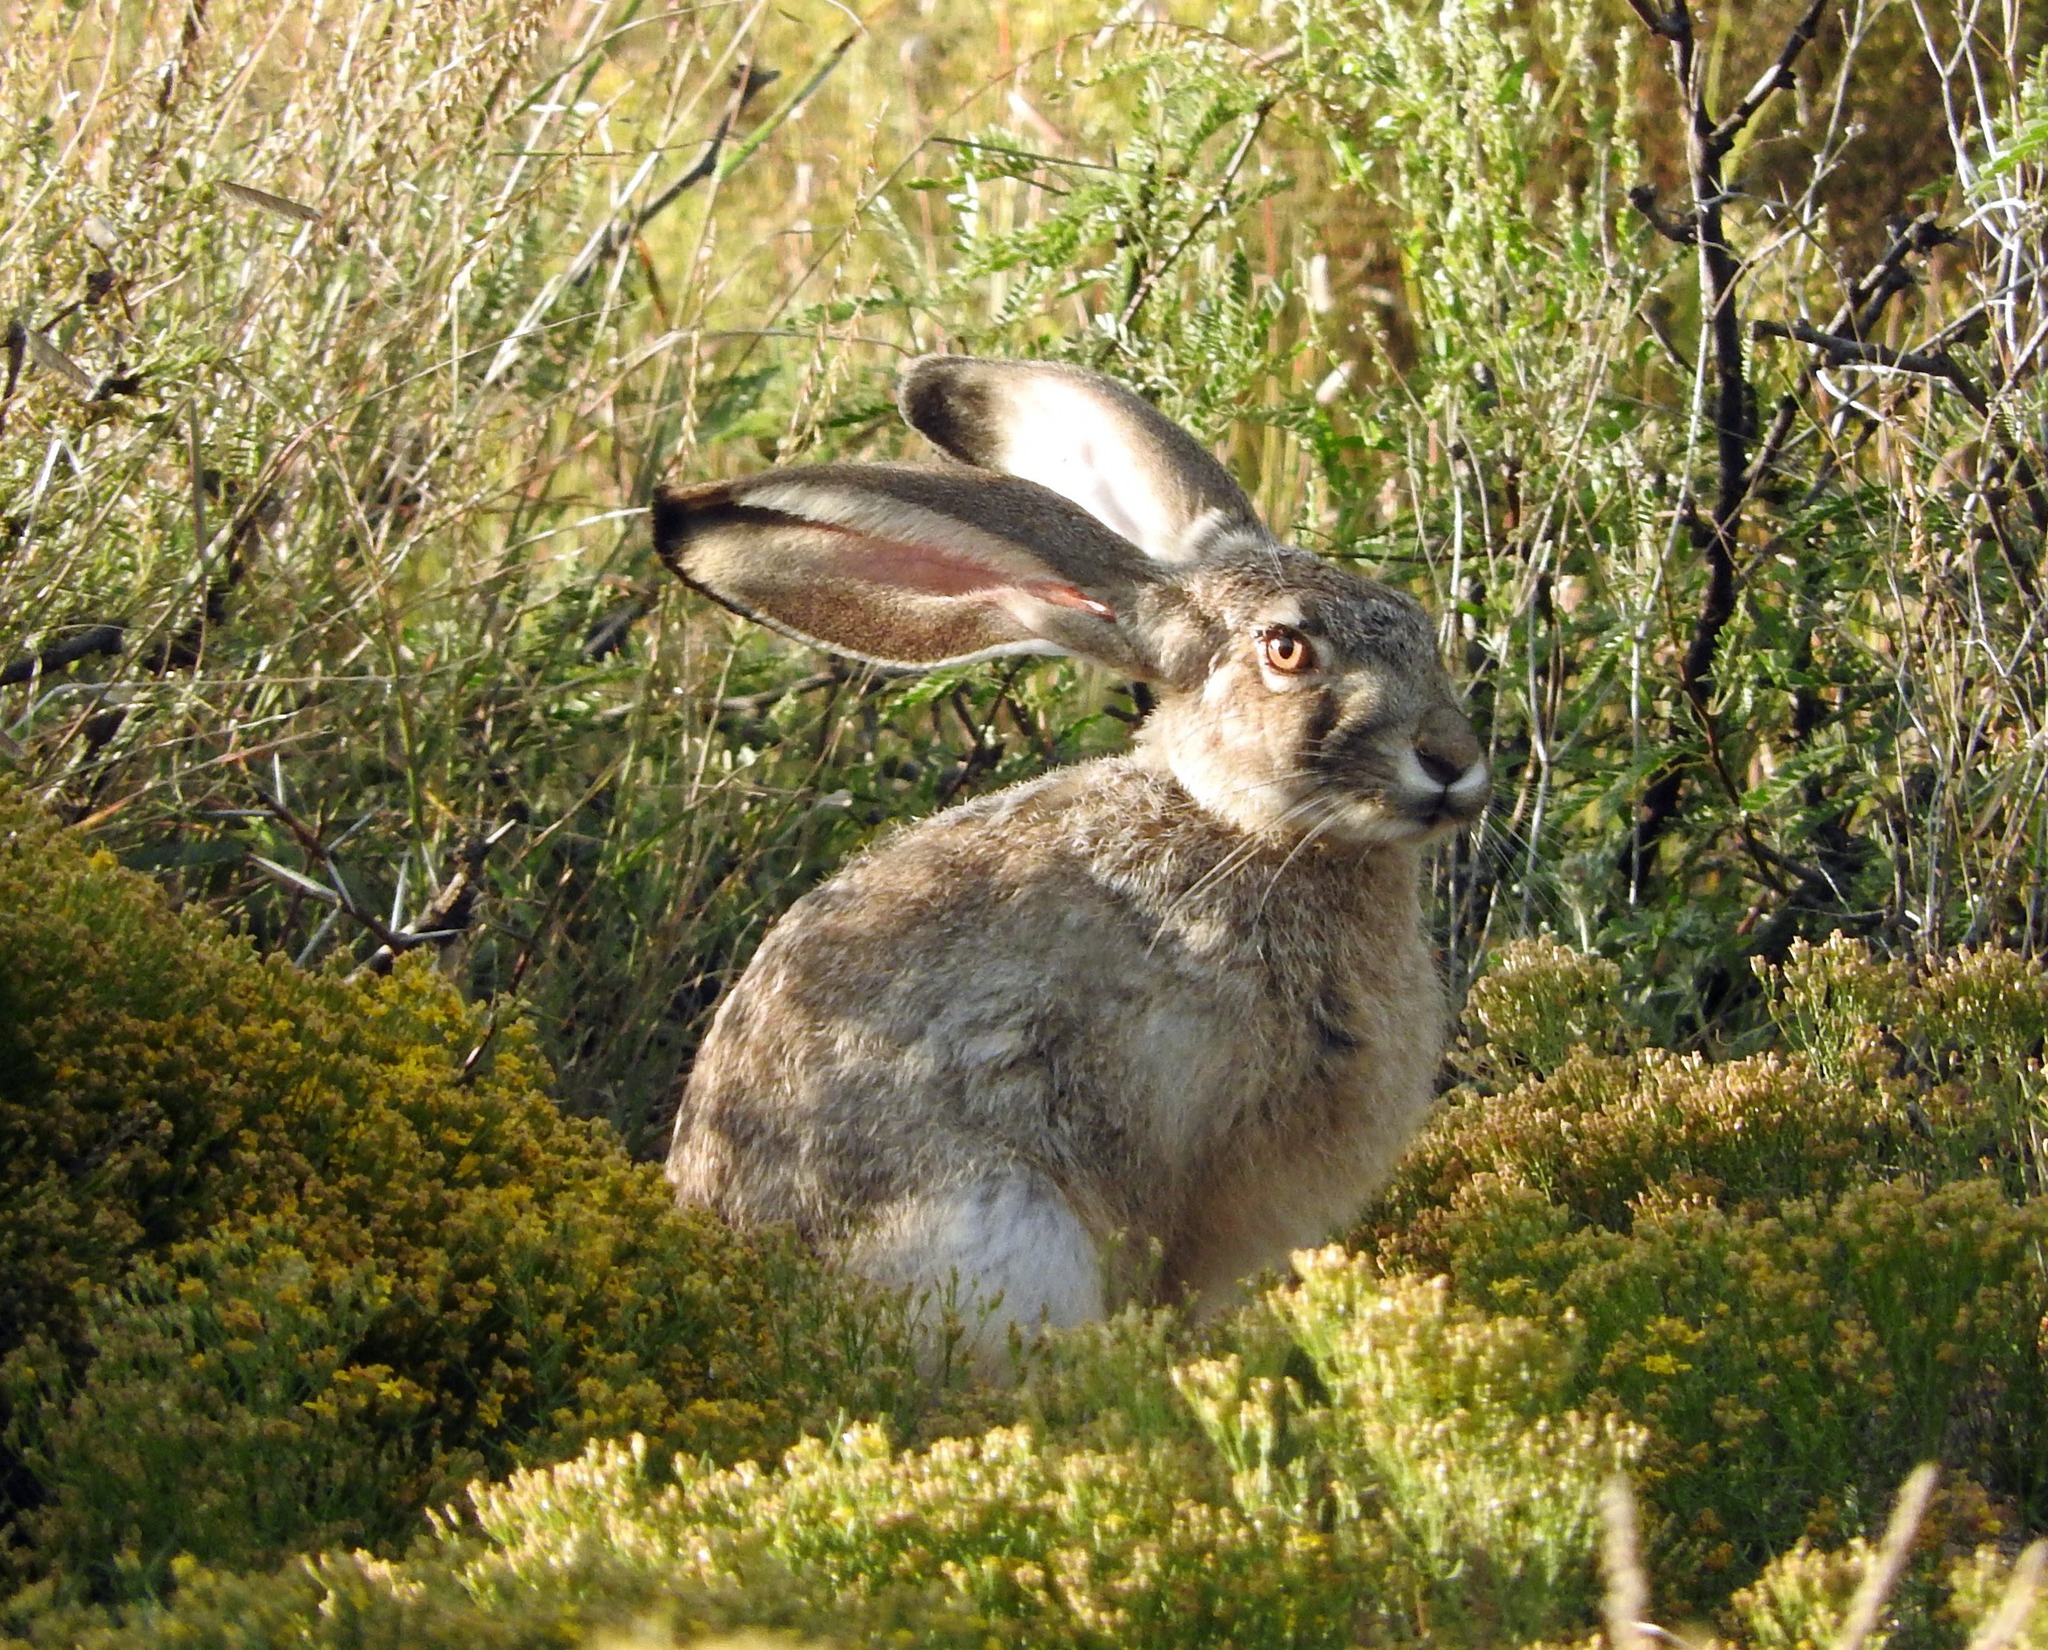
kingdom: Animalia
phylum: Chordata
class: Mammalia
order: Lagomorpha
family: Leporidae
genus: Lepus
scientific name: Lepus californicus
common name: Black-tailed jackrabbit
